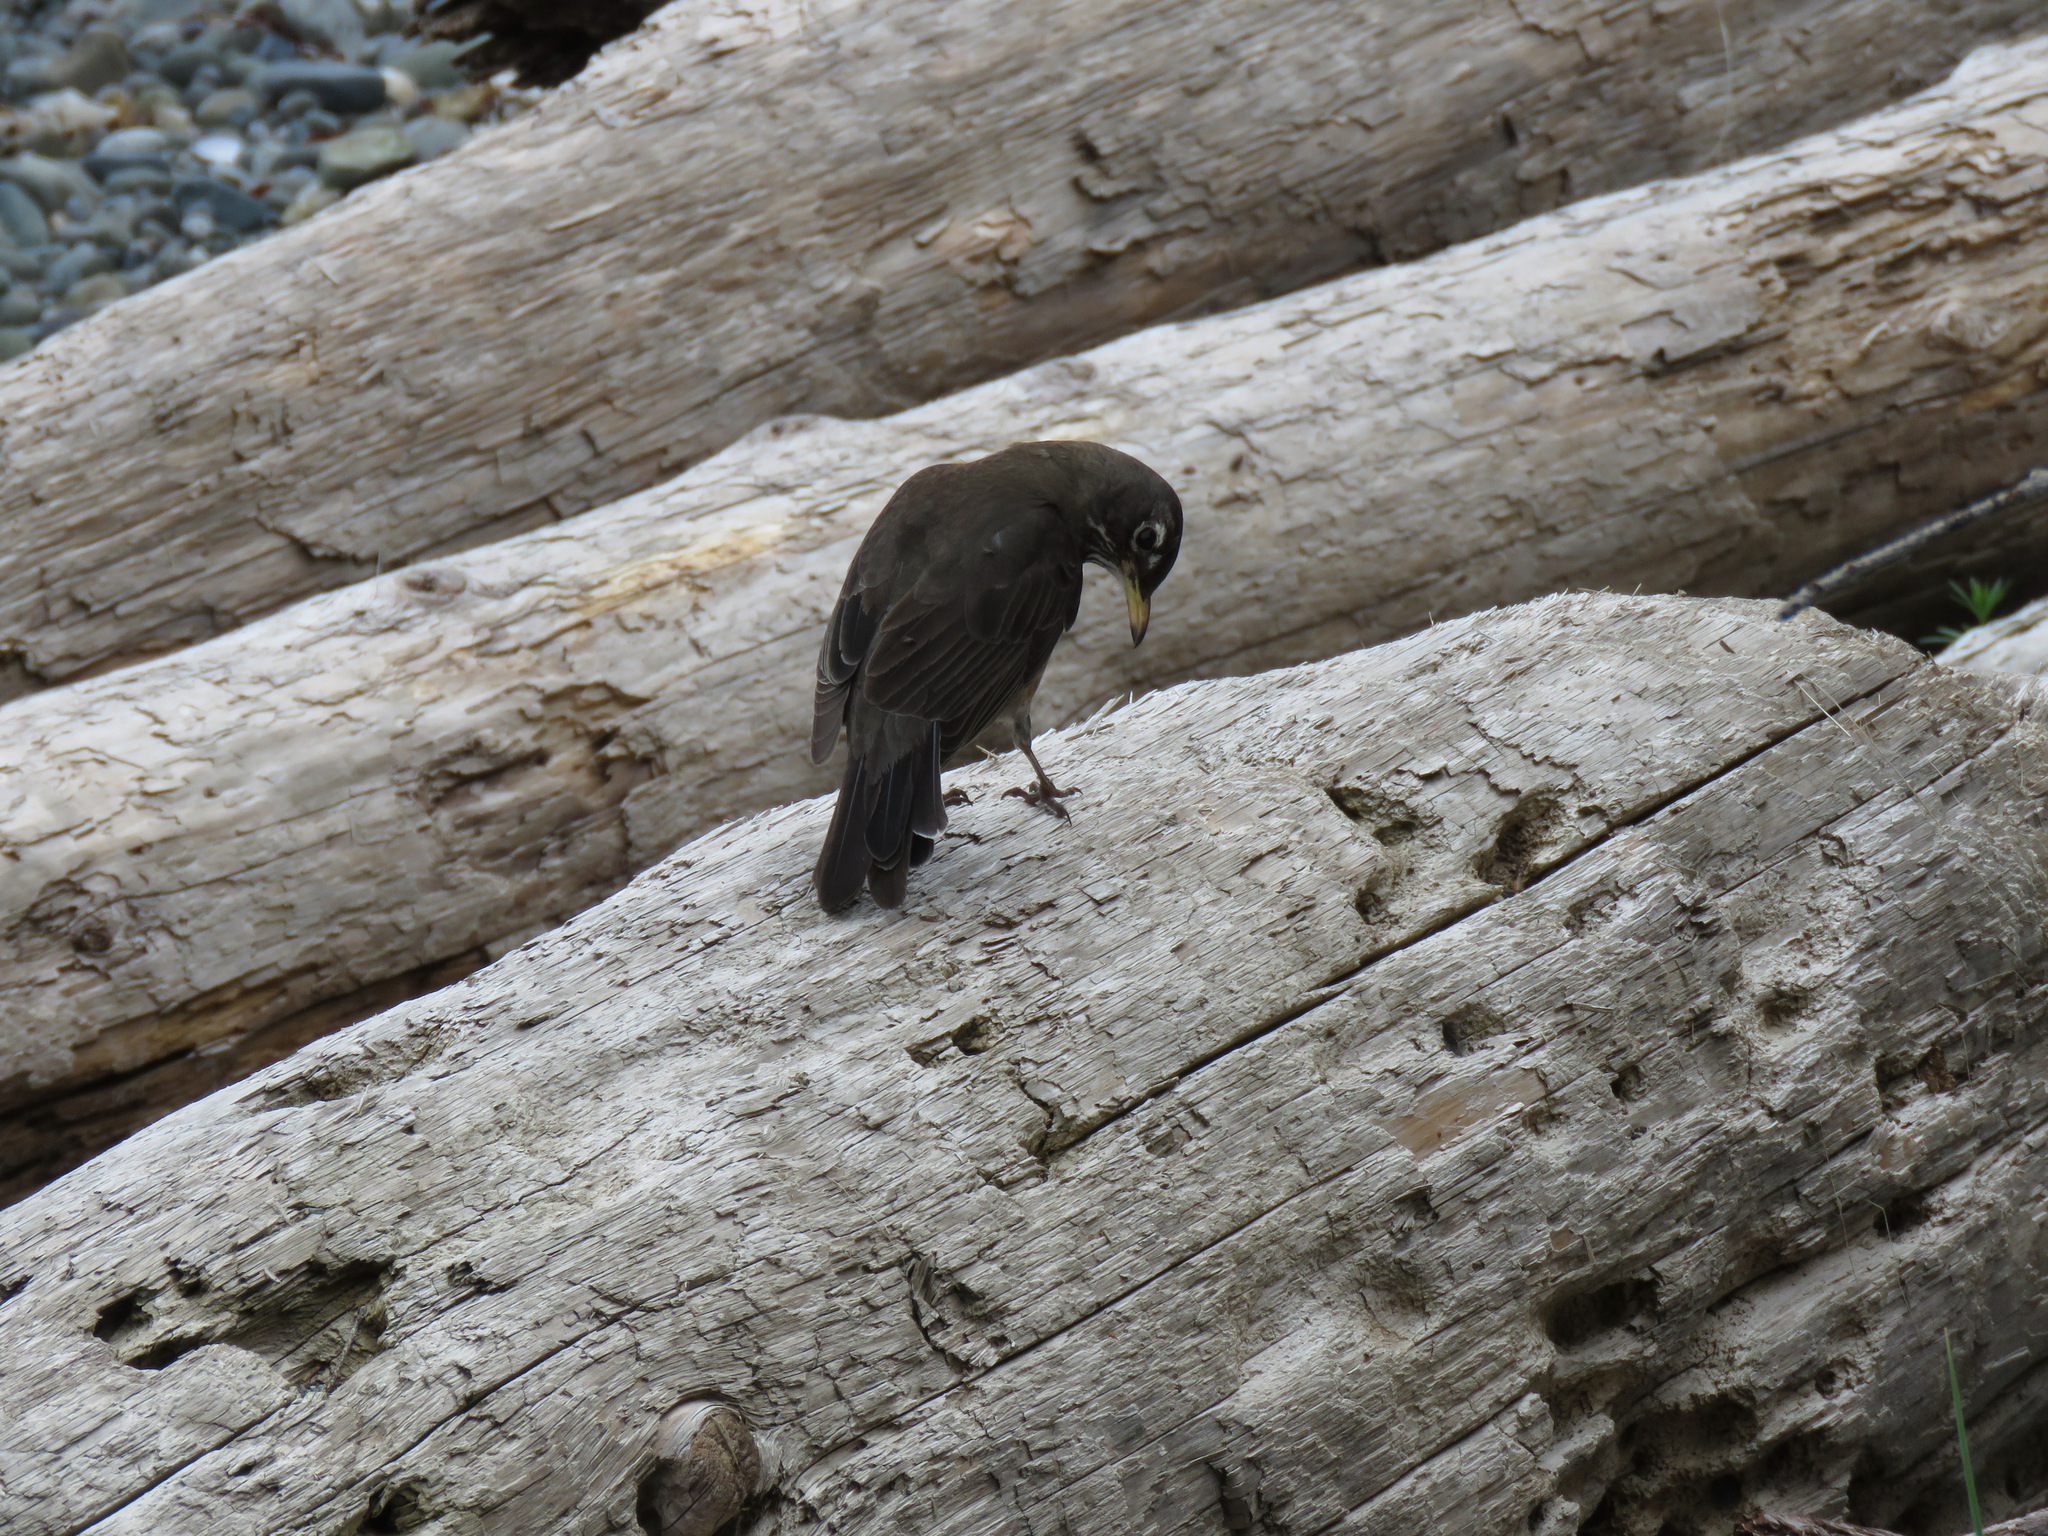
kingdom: Animalia
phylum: Chordata
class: Aves
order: Passeriformes
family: Turdidae
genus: Turdus
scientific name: Turdus migratorius
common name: American robin
